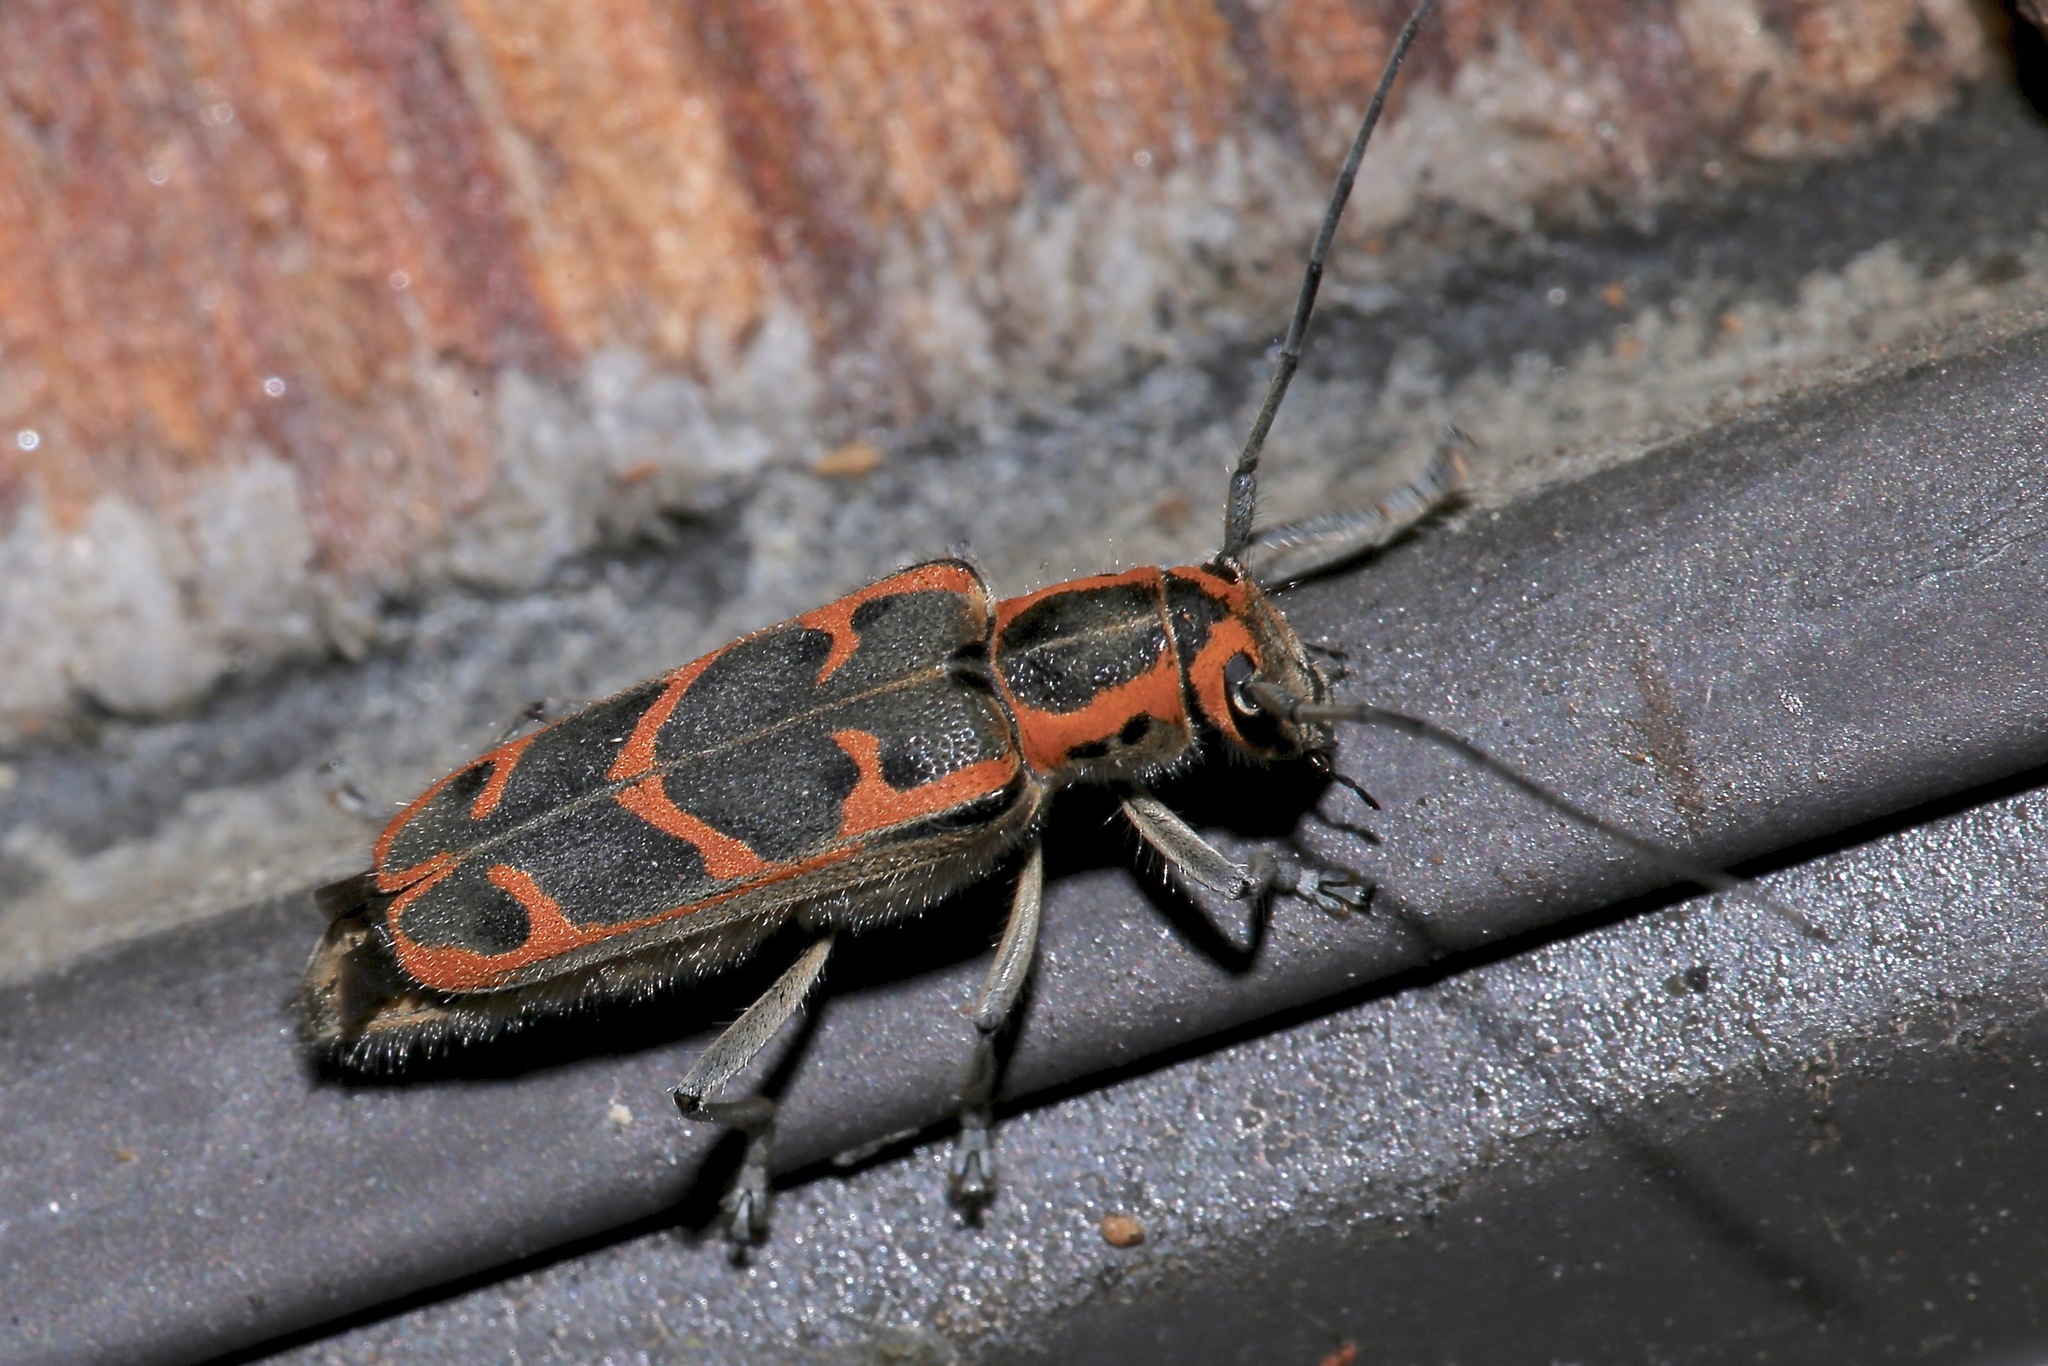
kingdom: Animalia
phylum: Arthropoda
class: Insecta
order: Coleoptera
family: Cerambycidae
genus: Saperda
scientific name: Saperda tridentata
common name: Elm borer
